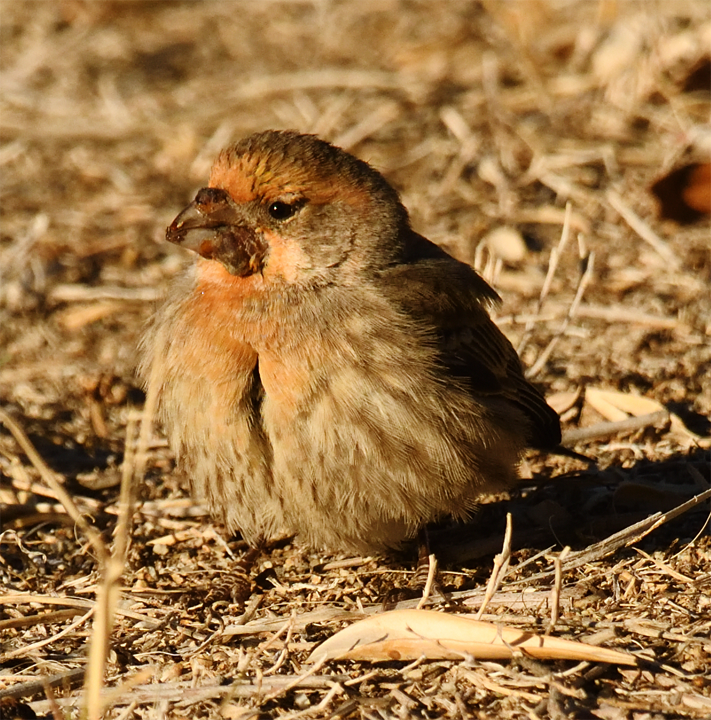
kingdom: Animalia
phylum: Chordata
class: Aves
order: Passeriformes
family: Fringillidae
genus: Haemorhous
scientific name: Haemorhous mexicanus
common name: House finch
